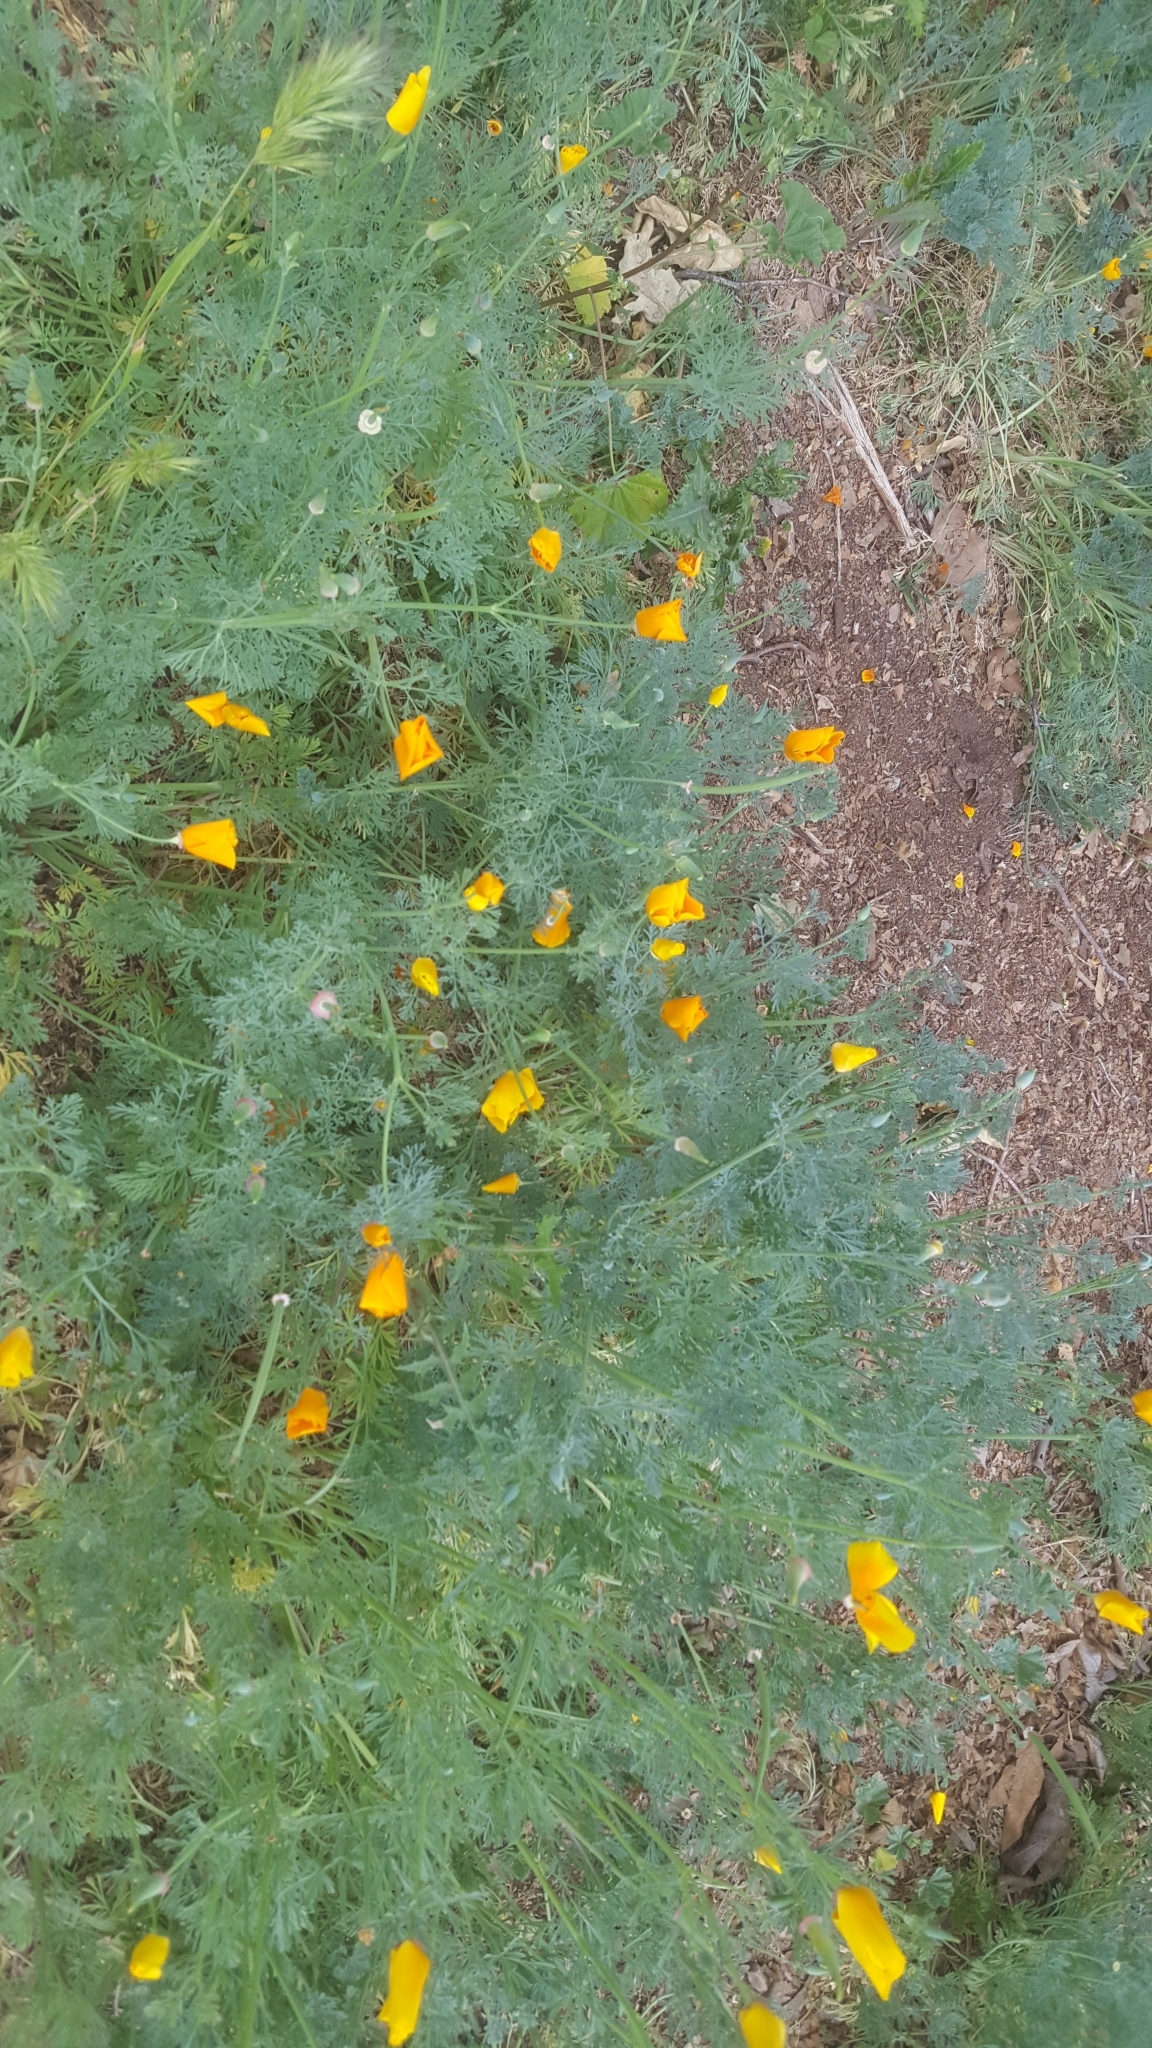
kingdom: Plantae
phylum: Tracheophyta
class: Magnoliopsida
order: Ranunculales
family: Papaveraceae
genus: Eschscholzia
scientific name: Eschscholzia californica
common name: California poppy
